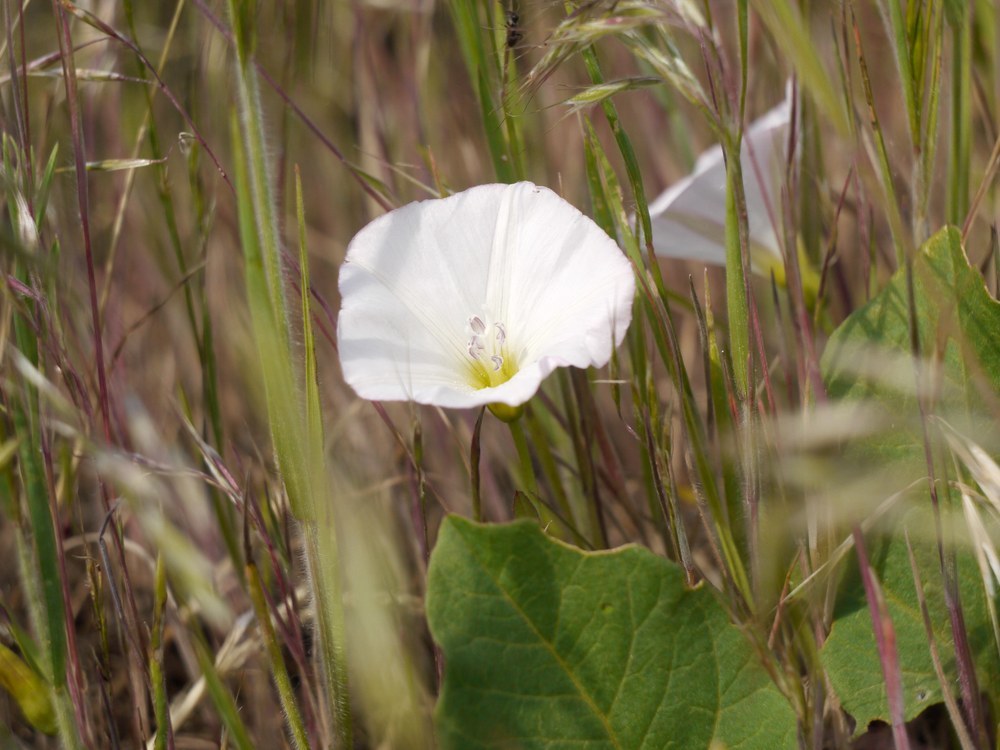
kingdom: Plantae
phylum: Tracheophyta
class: Magnoliopsida
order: Solanales
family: Convolvulaceae
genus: Convolvulus
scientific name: Convolvulus arvensis
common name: Field bindweed
